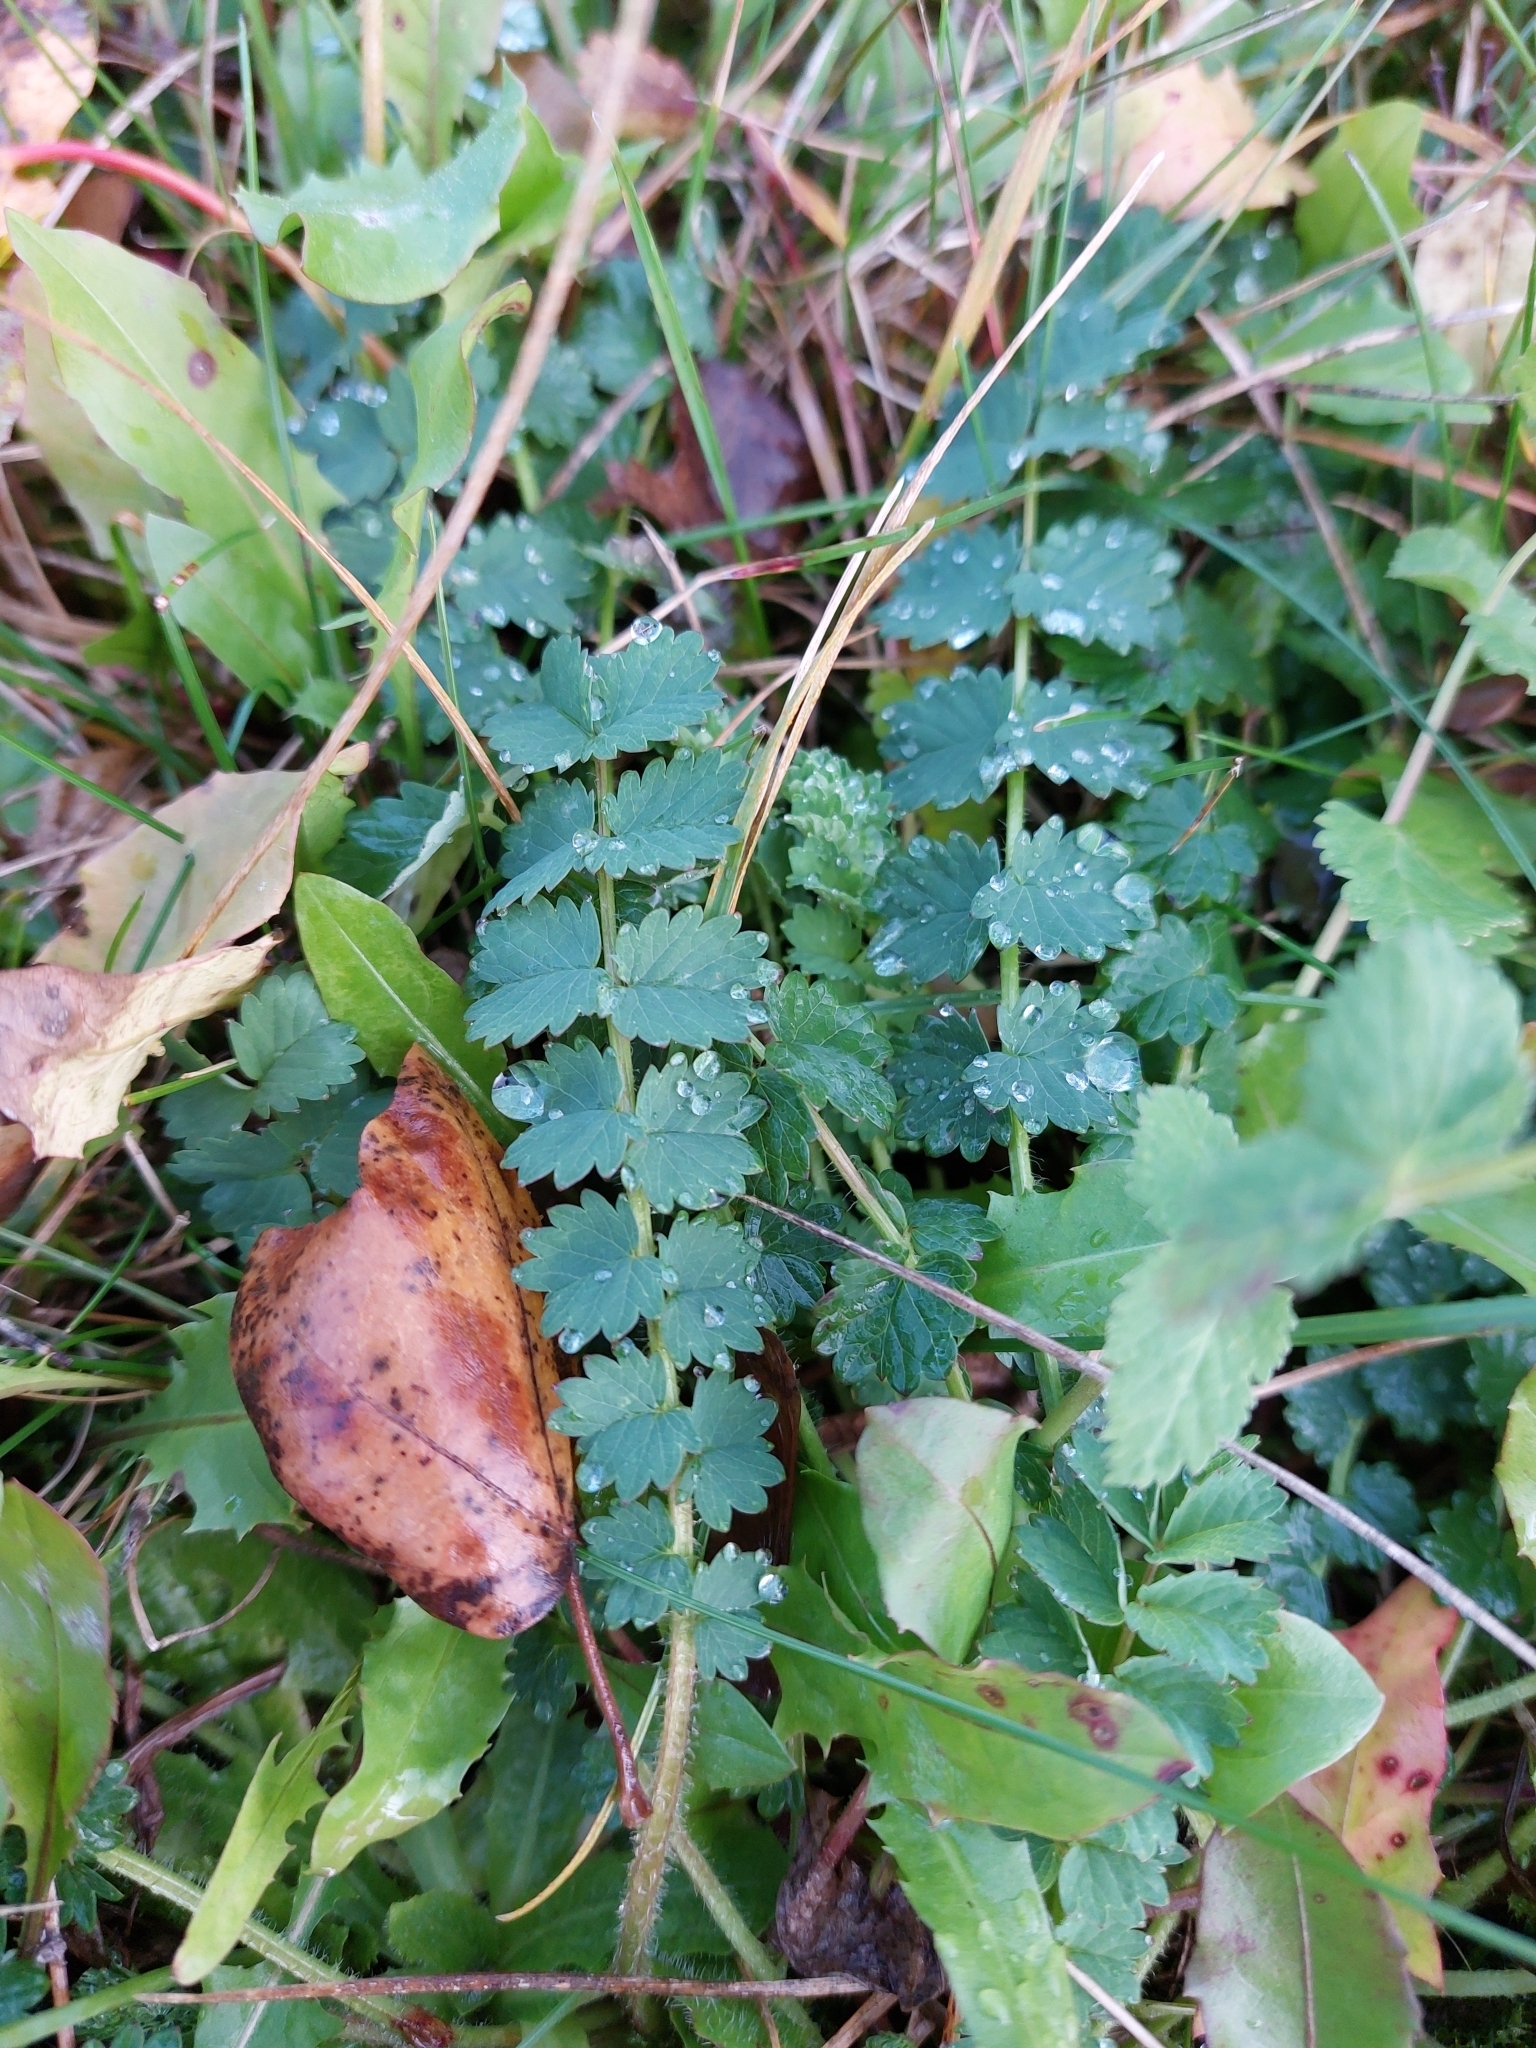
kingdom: Plantae
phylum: Tracheophyta
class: Magnoliopsida
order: Rosales
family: Rosaceae
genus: Poterium
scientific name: Poterium sanguisorba
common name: Salad burnet
